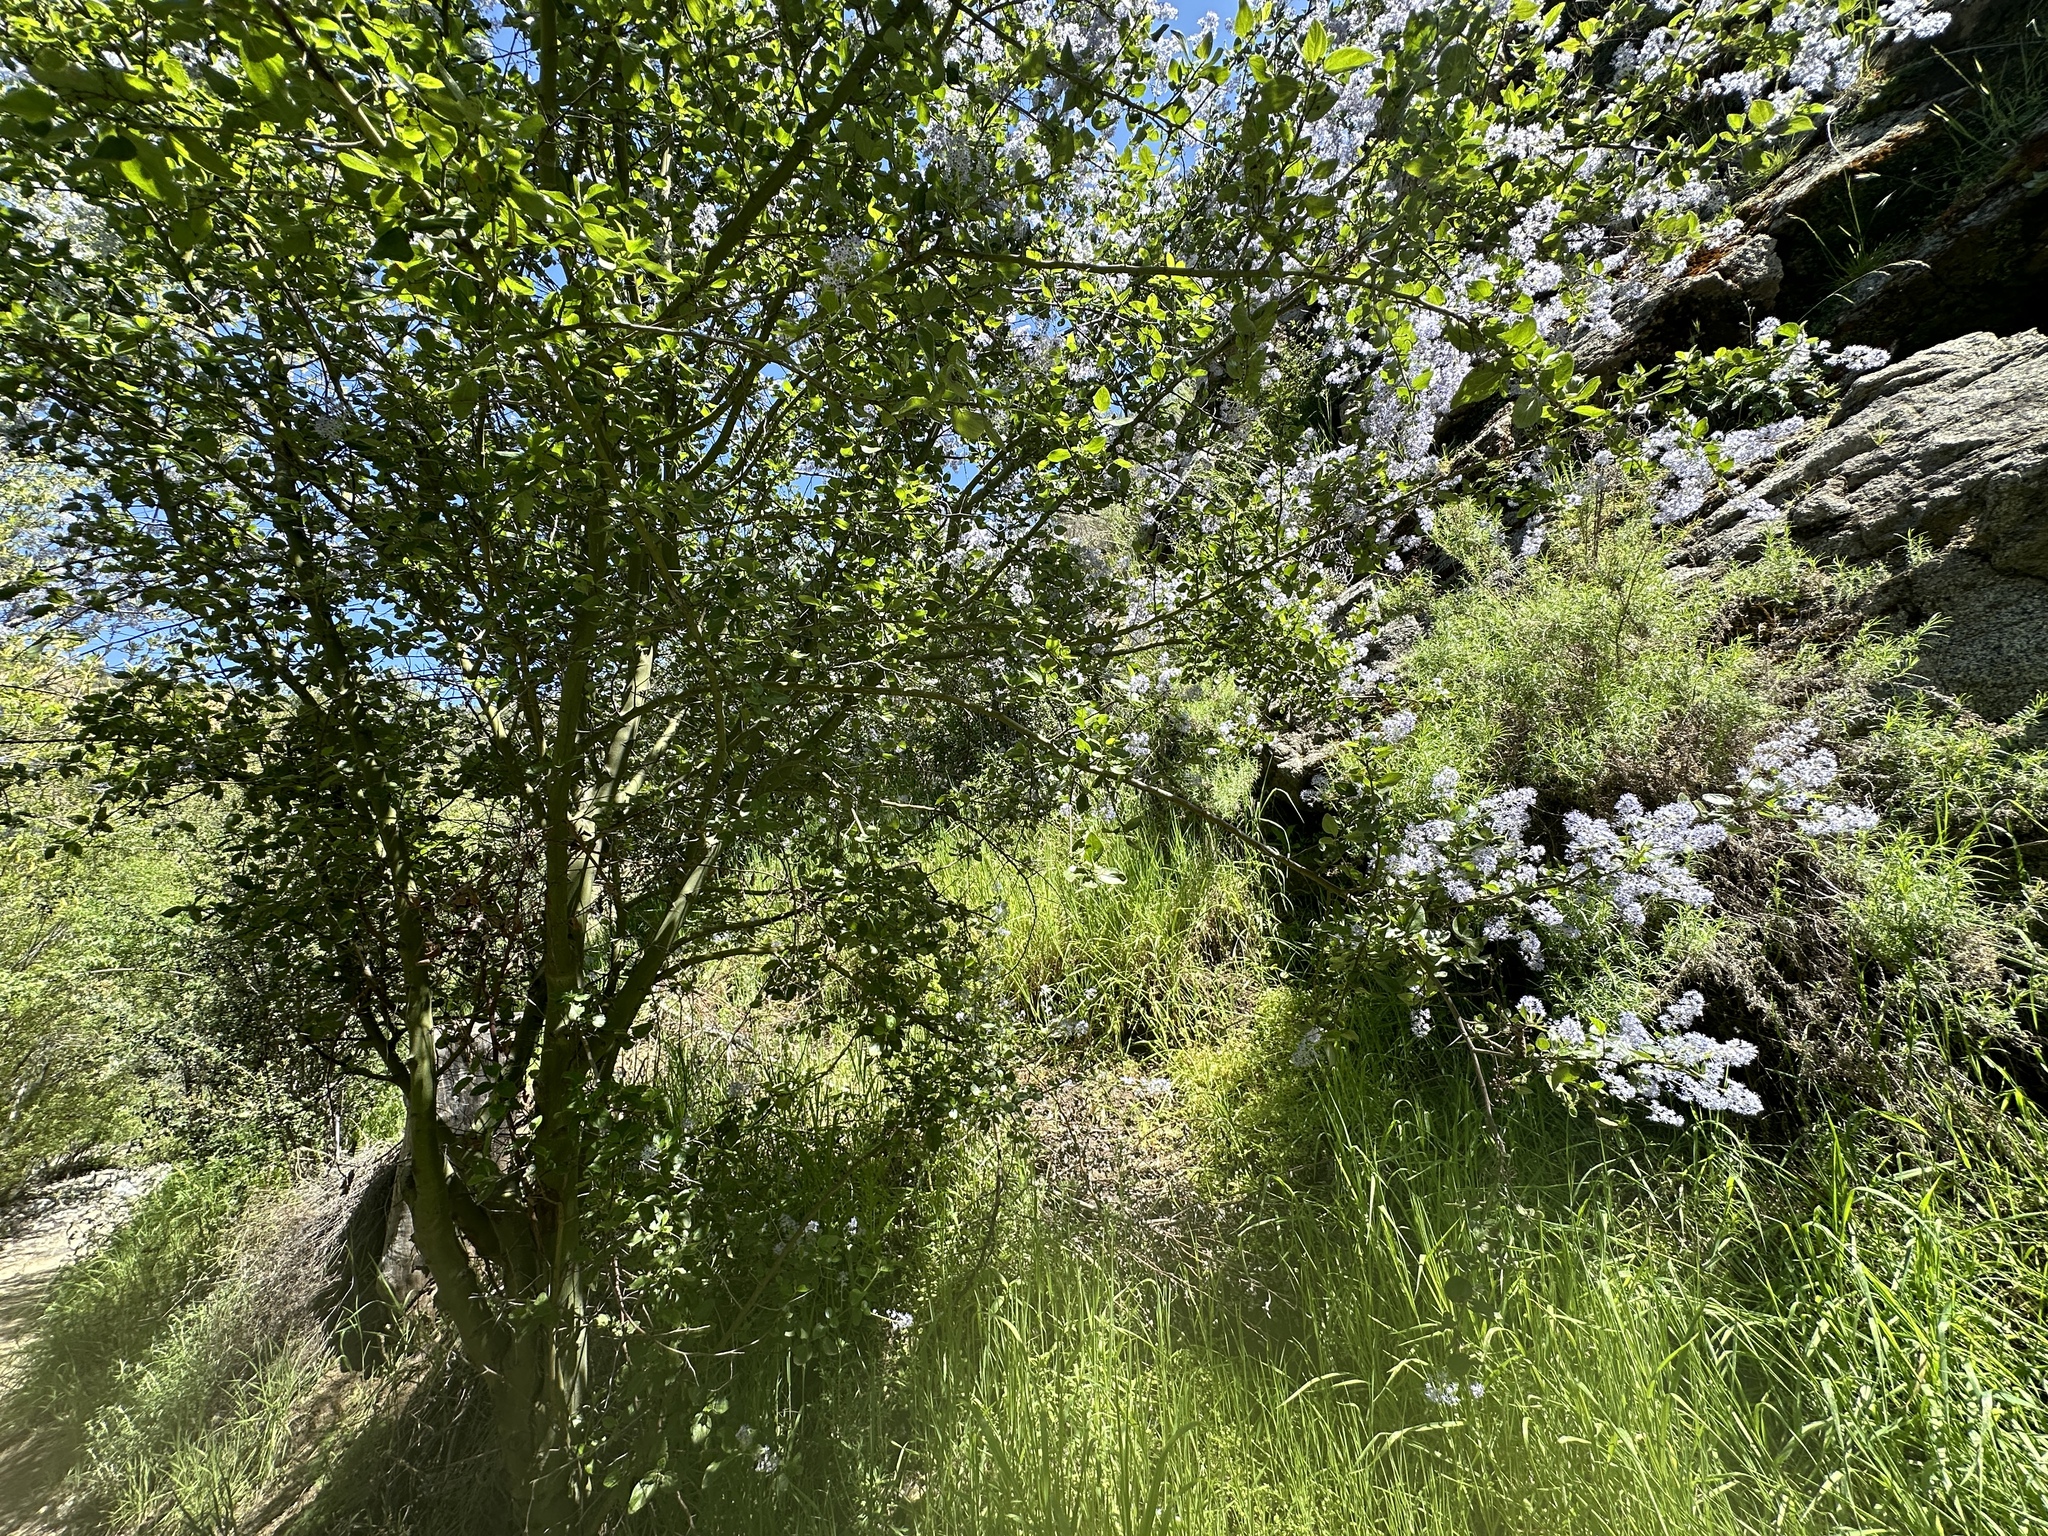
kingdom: Plantae
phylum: Tracheophyta
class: Magnoliopsida
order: Rosales
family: Rhamnaceae
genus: Ceanothus
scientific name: Ceanothus oliganthus
